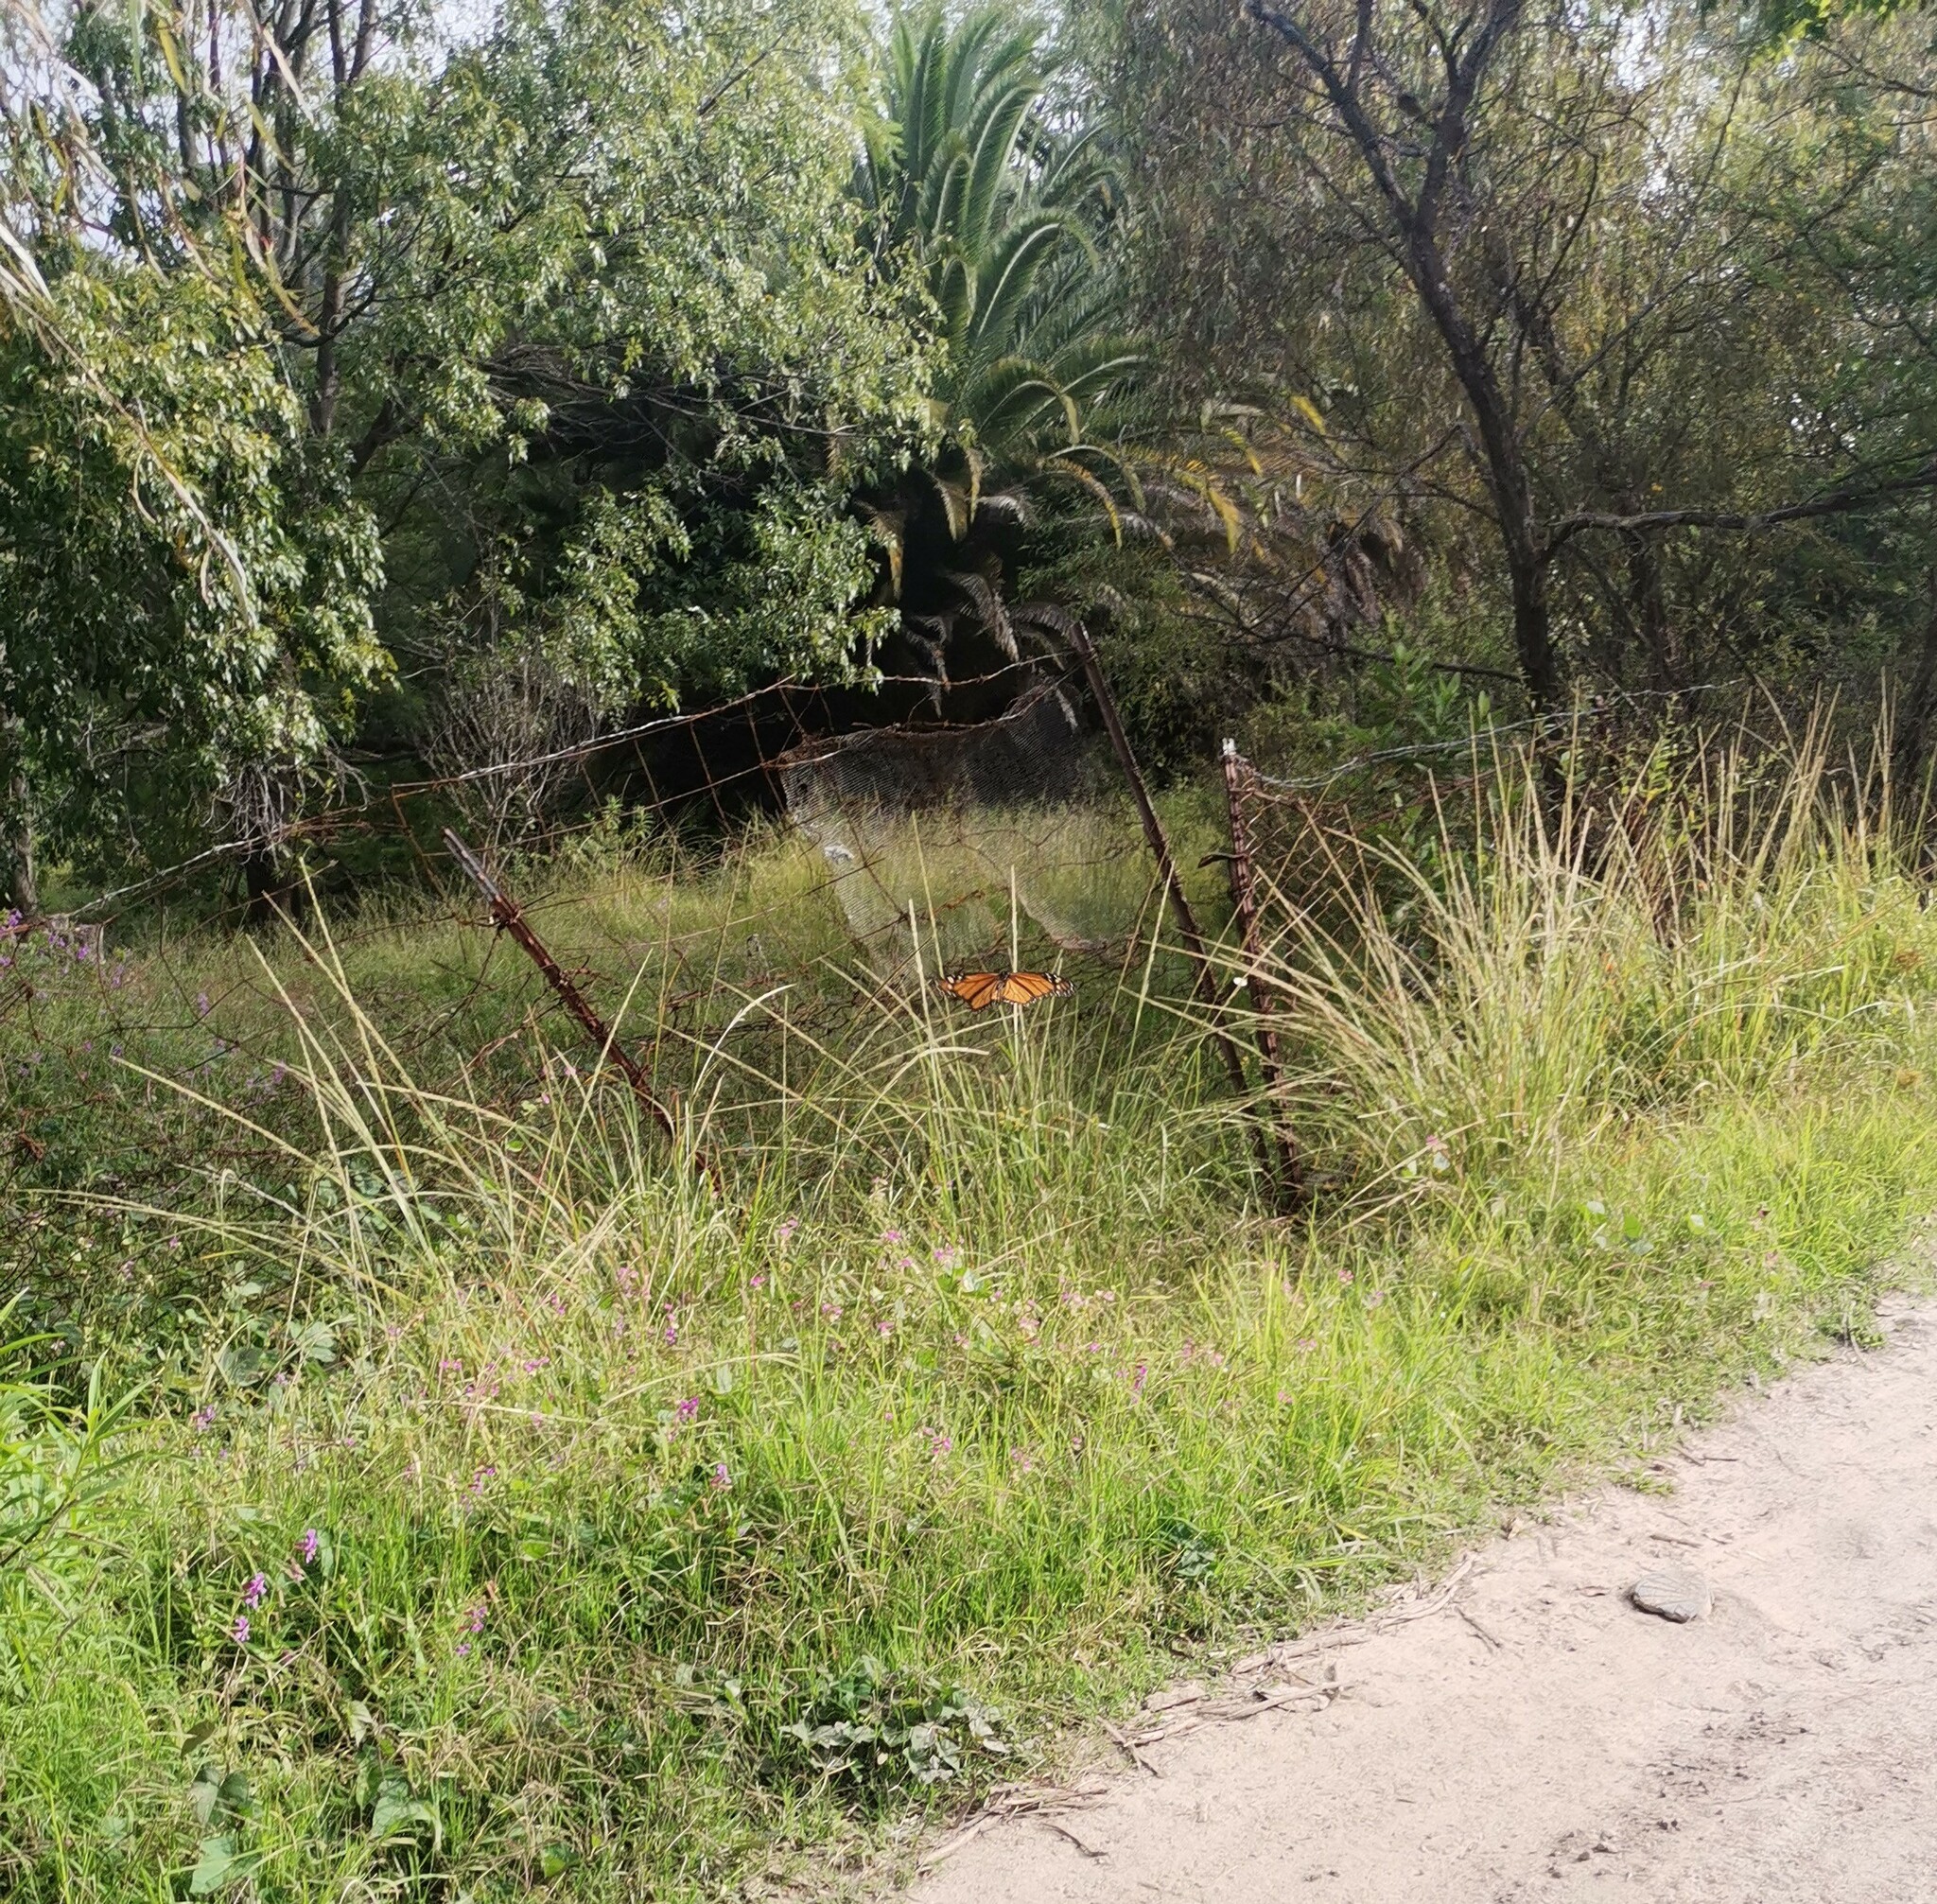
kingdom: Animalia
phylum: Arthropoda
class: Insecta
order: Lepidoptera
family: Nymphalidae
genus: Danaus
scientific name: Danaus plexippus
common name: Monarch
